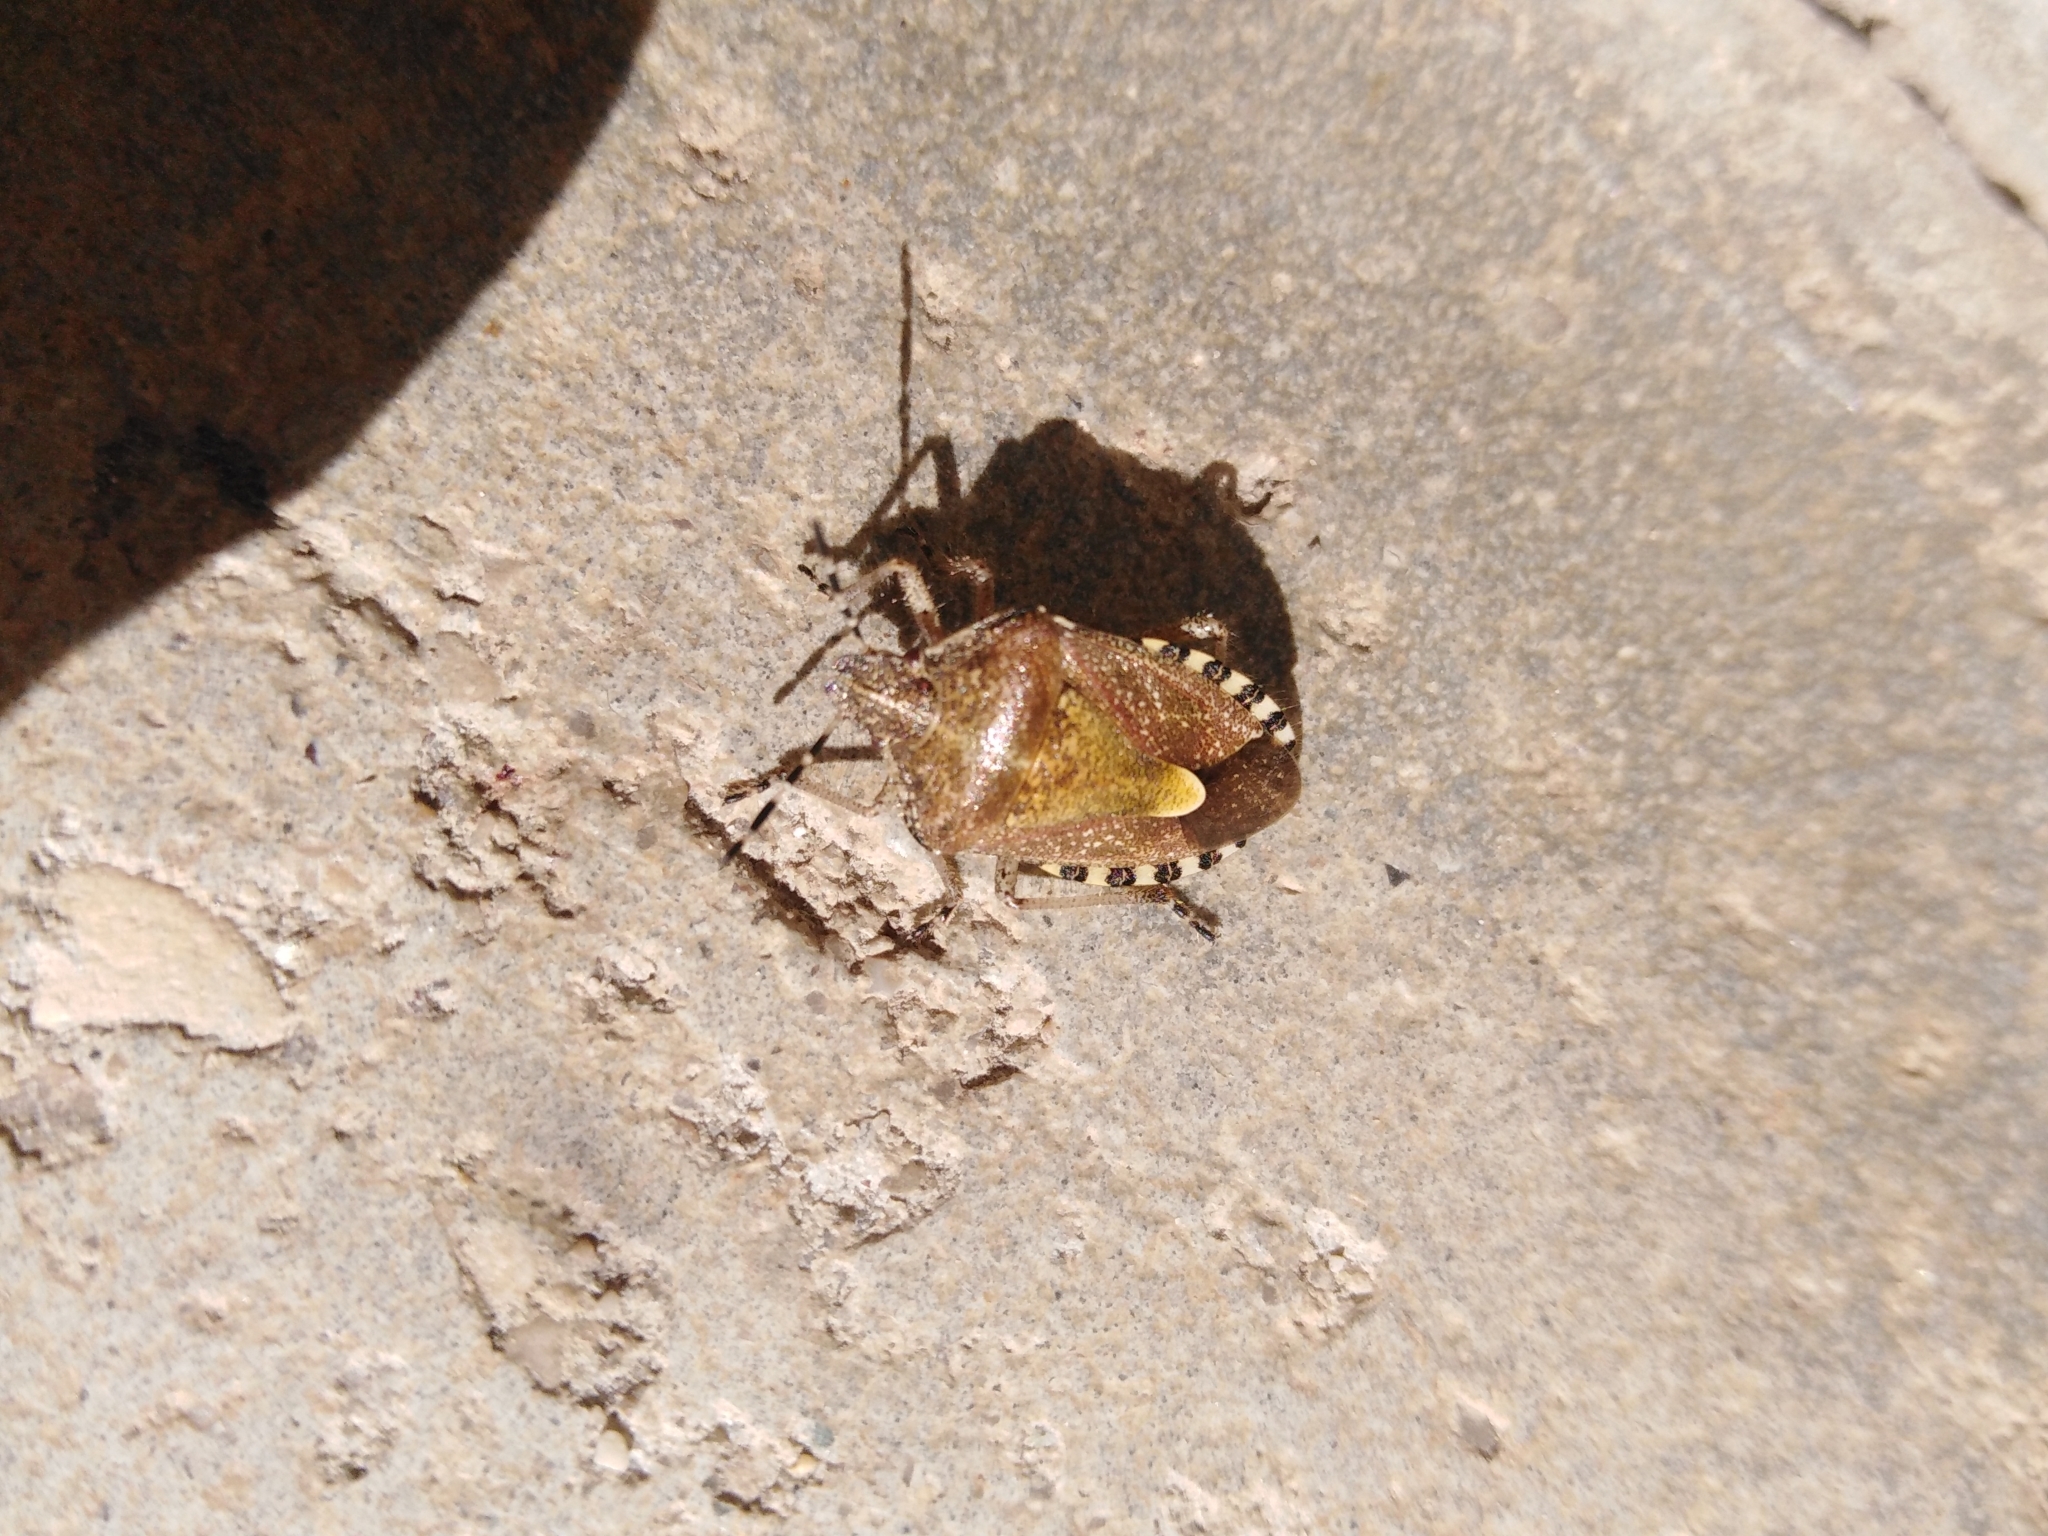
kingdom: Animalia
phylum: Arthropoda
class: Insecta
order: Hemiptera
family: Pentatomidae
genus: Dolycoris
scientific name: Dolycoris baccarum
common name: Sloe bug
